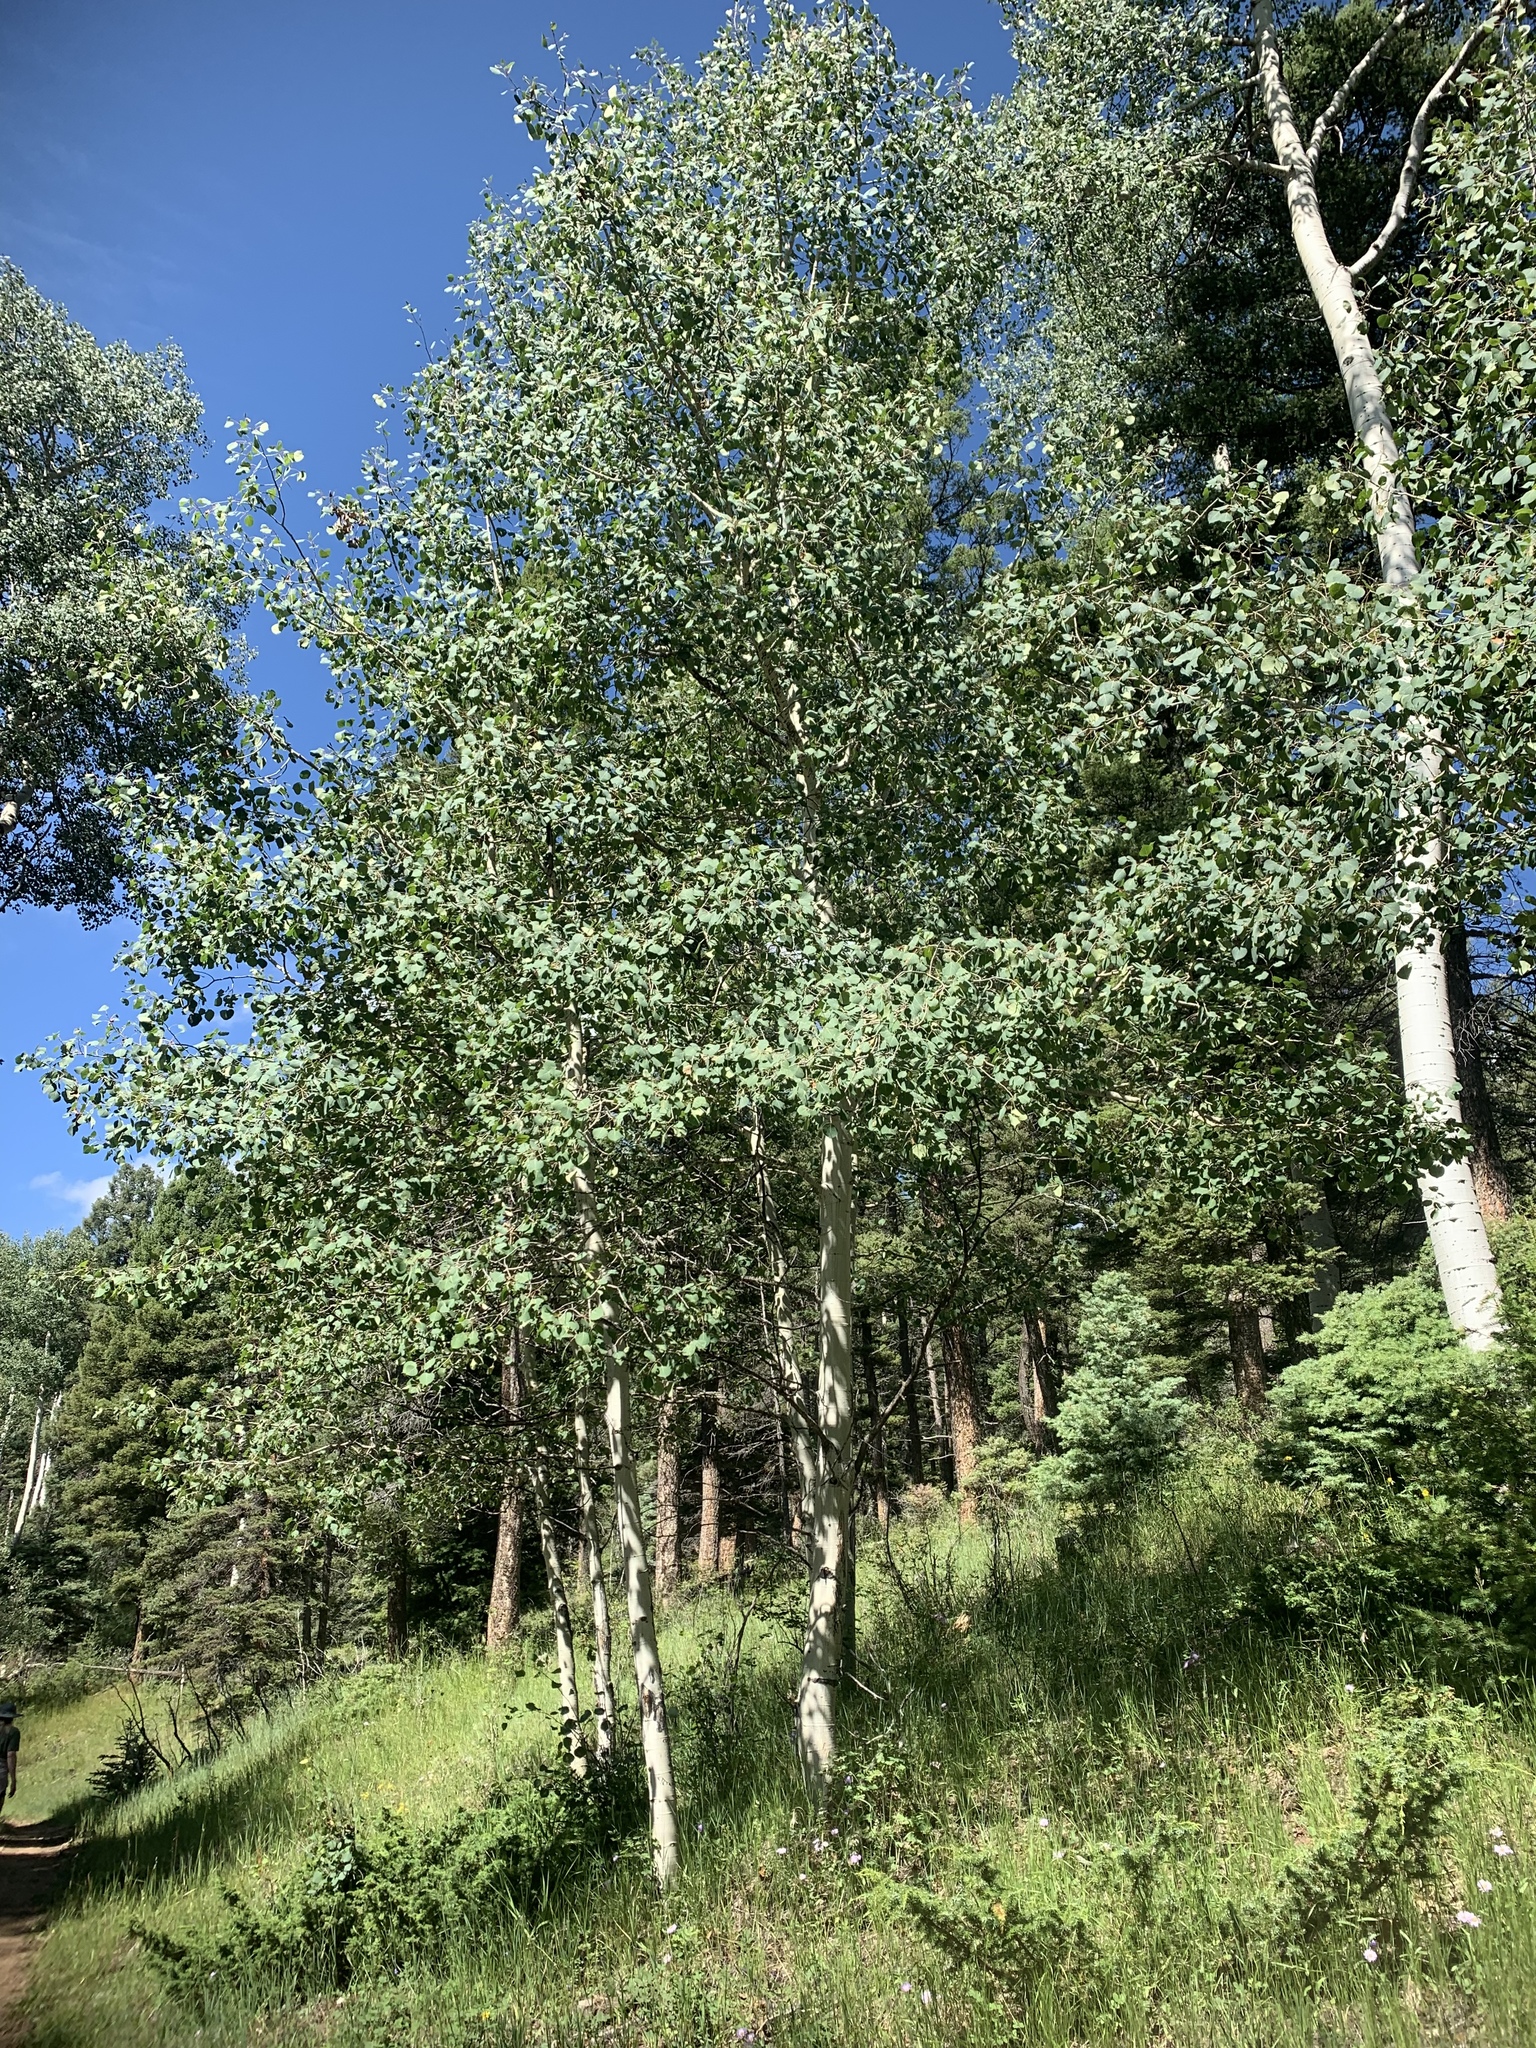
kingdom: Plantae
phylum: Tracheophyta
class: Magnoliopsida
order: Malpighiales
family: Salicaceae
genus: Populus
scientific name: Populus tremuloides
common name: Quaking aspen
